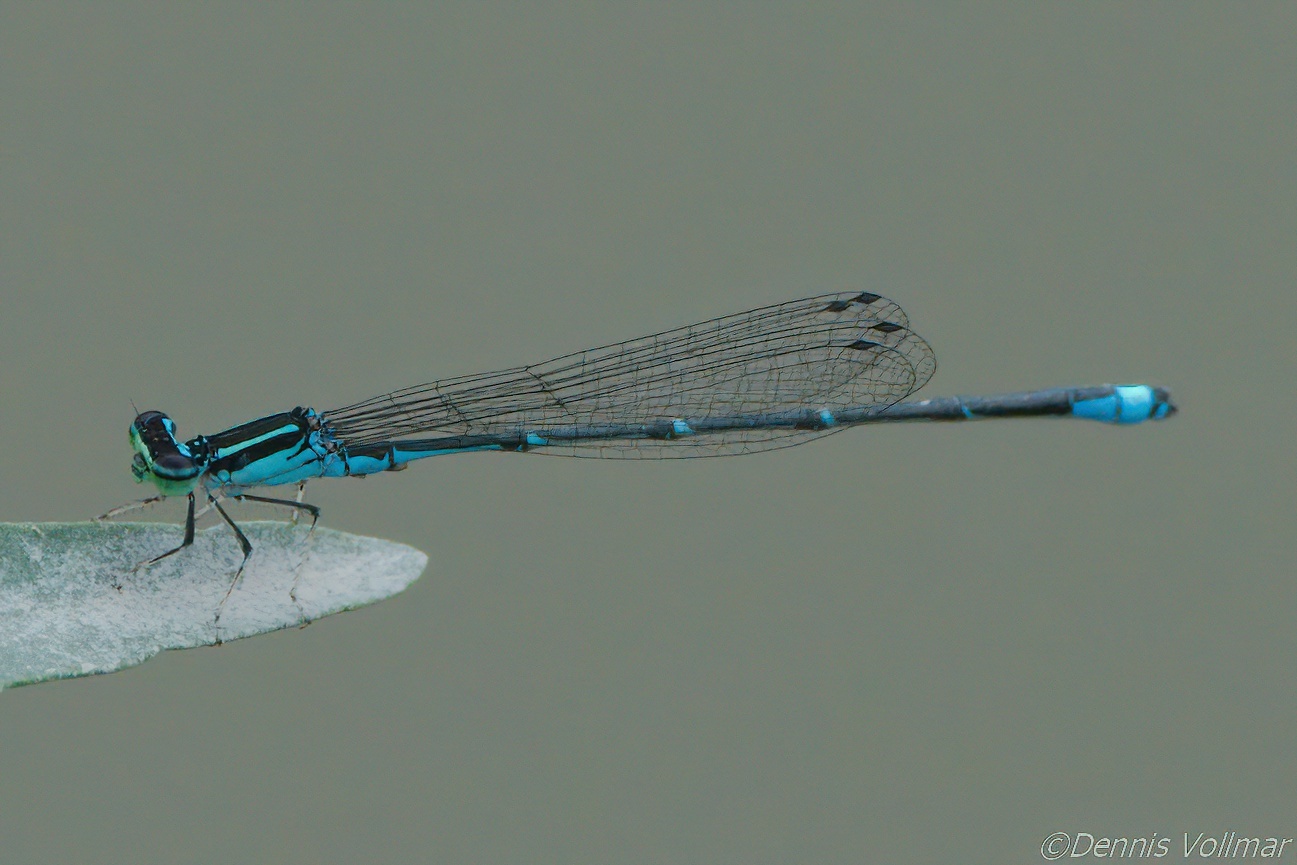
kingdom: Animalia
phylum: Arthropoda
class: Insecta
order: Odonata
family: Coenagrionidae
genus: Enallagma
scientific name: Enallagma exsulans
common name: Stream bluet
